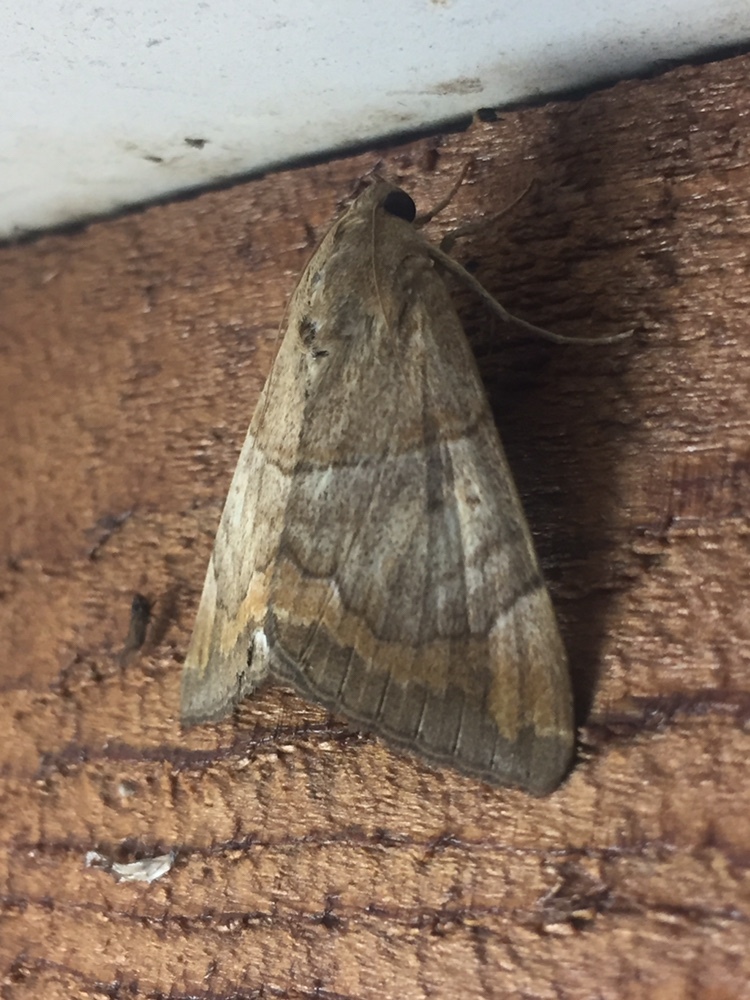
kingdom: Animalia
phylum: Arthropoda
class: Insecta
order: Lepidoptera
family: Erebidae
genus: Achaea
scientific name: Achaea janata
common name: Croton caterpillar
